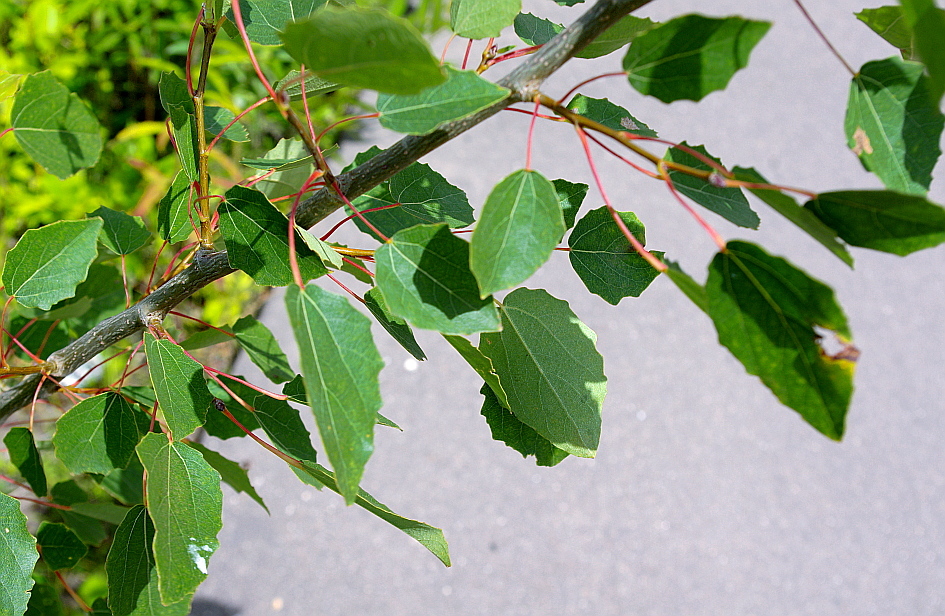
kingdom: Plantae
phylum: Tracheophyta
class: Magnoliopsida
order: Malpighiales
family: Salicaceae
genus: Populus
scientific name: Populus tremula
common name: European aspen
